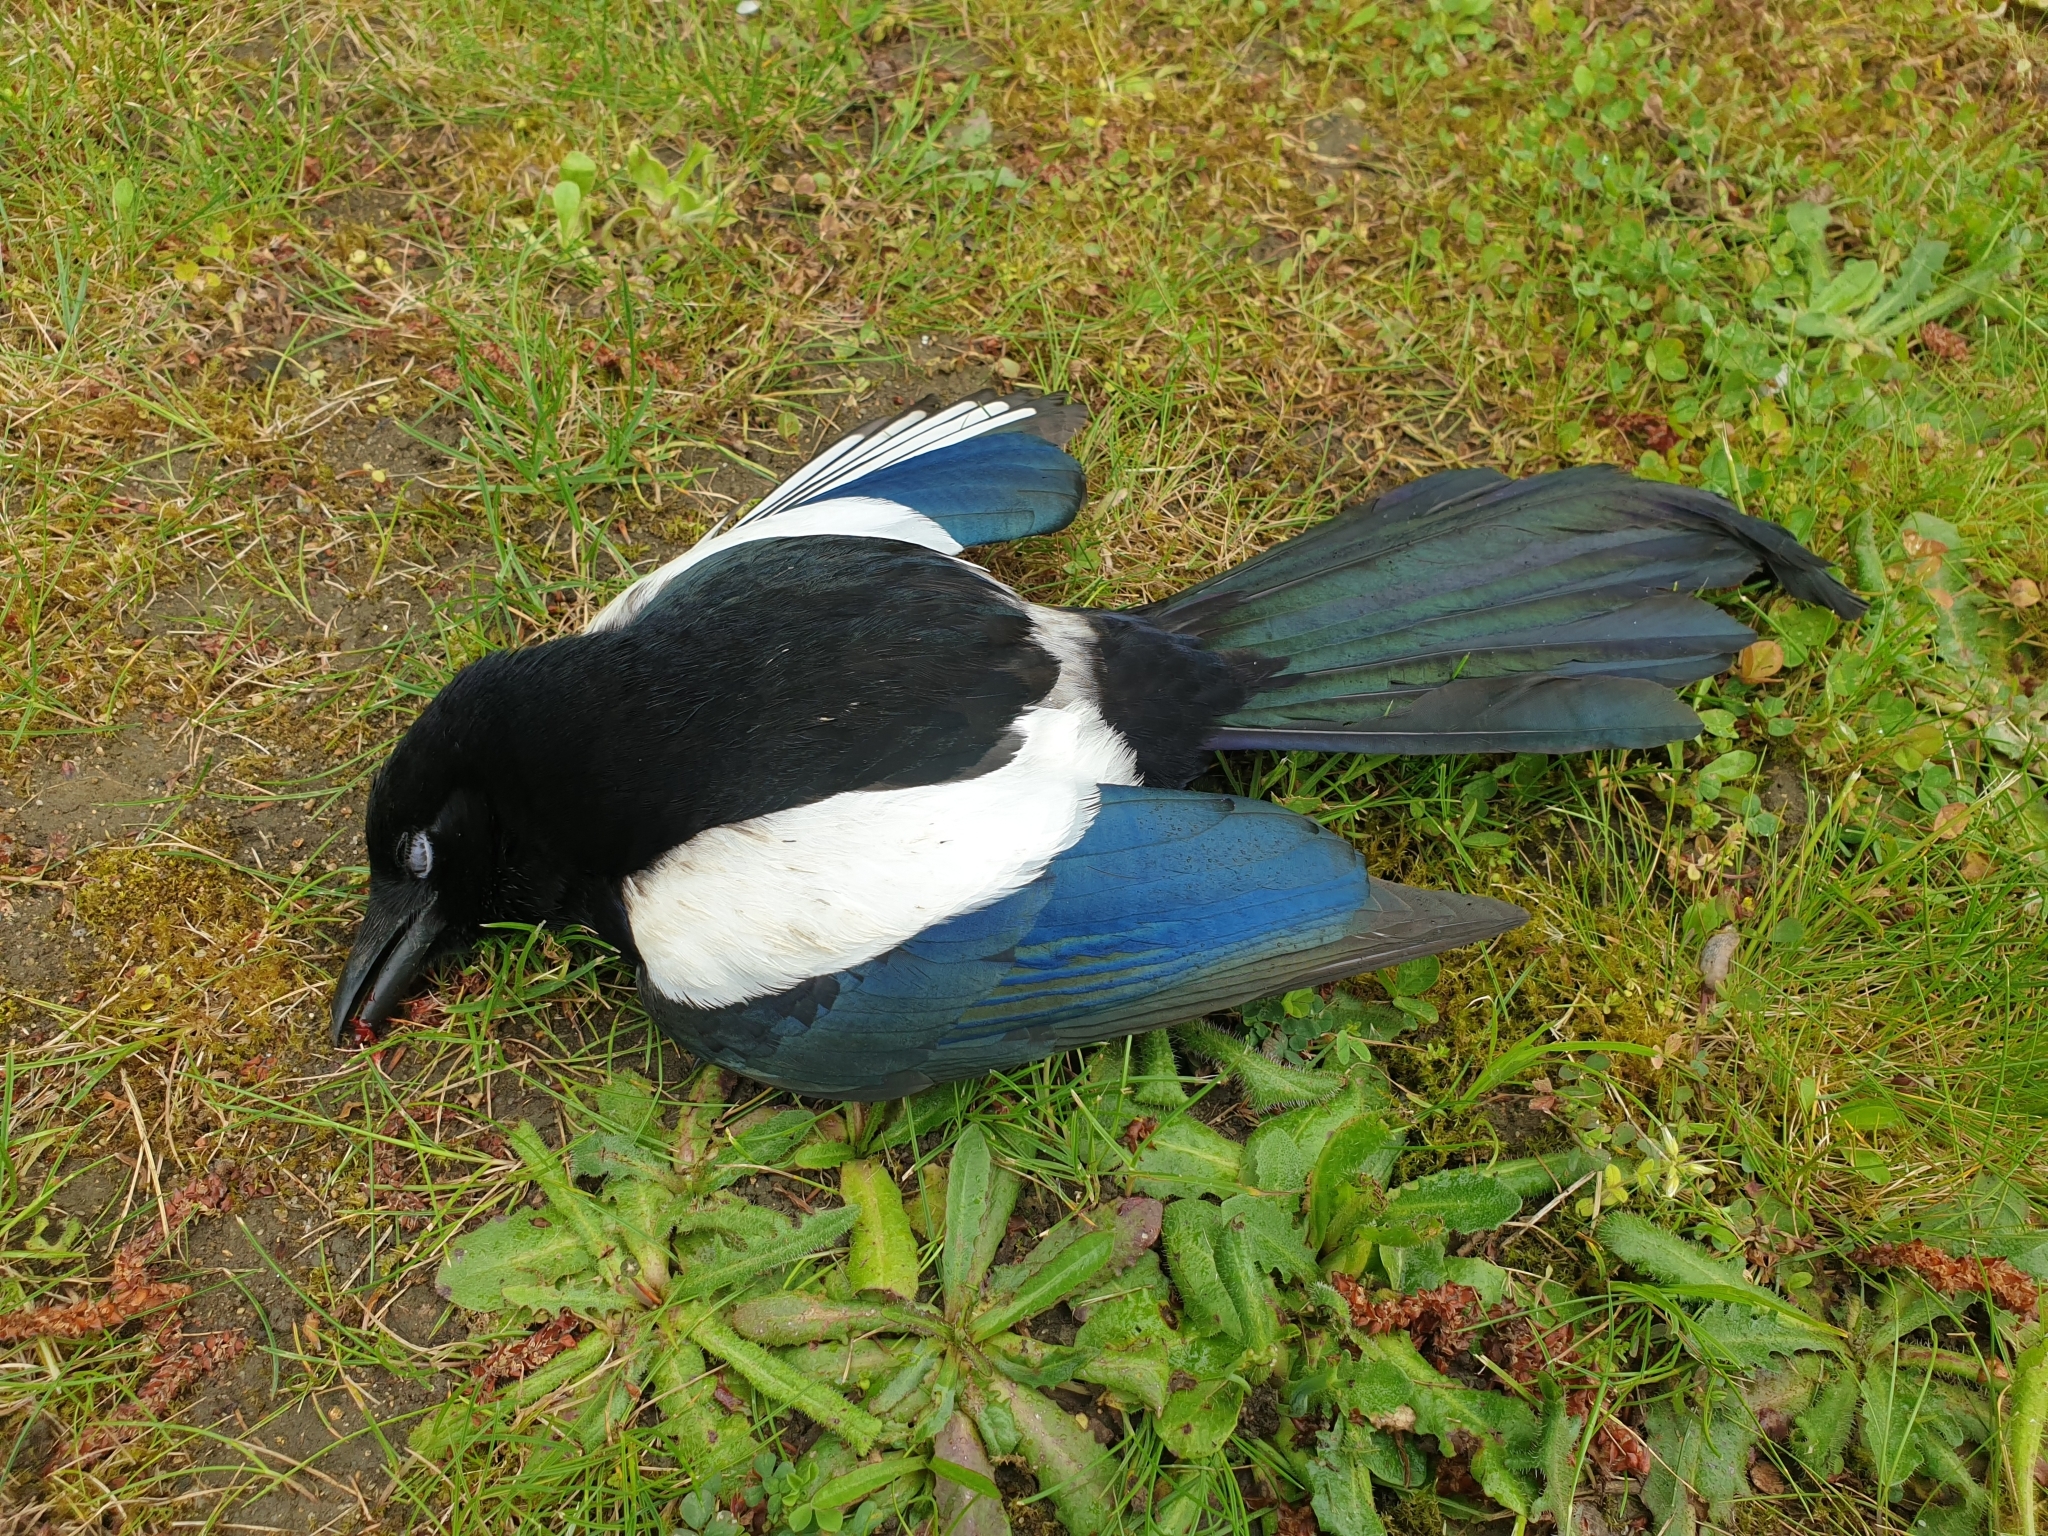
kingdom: Animalia
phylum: Chordata
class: Aves
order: Passeriformes
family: Corvidae
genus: Pica
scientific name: Pica pica
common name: Eurasian magpie
